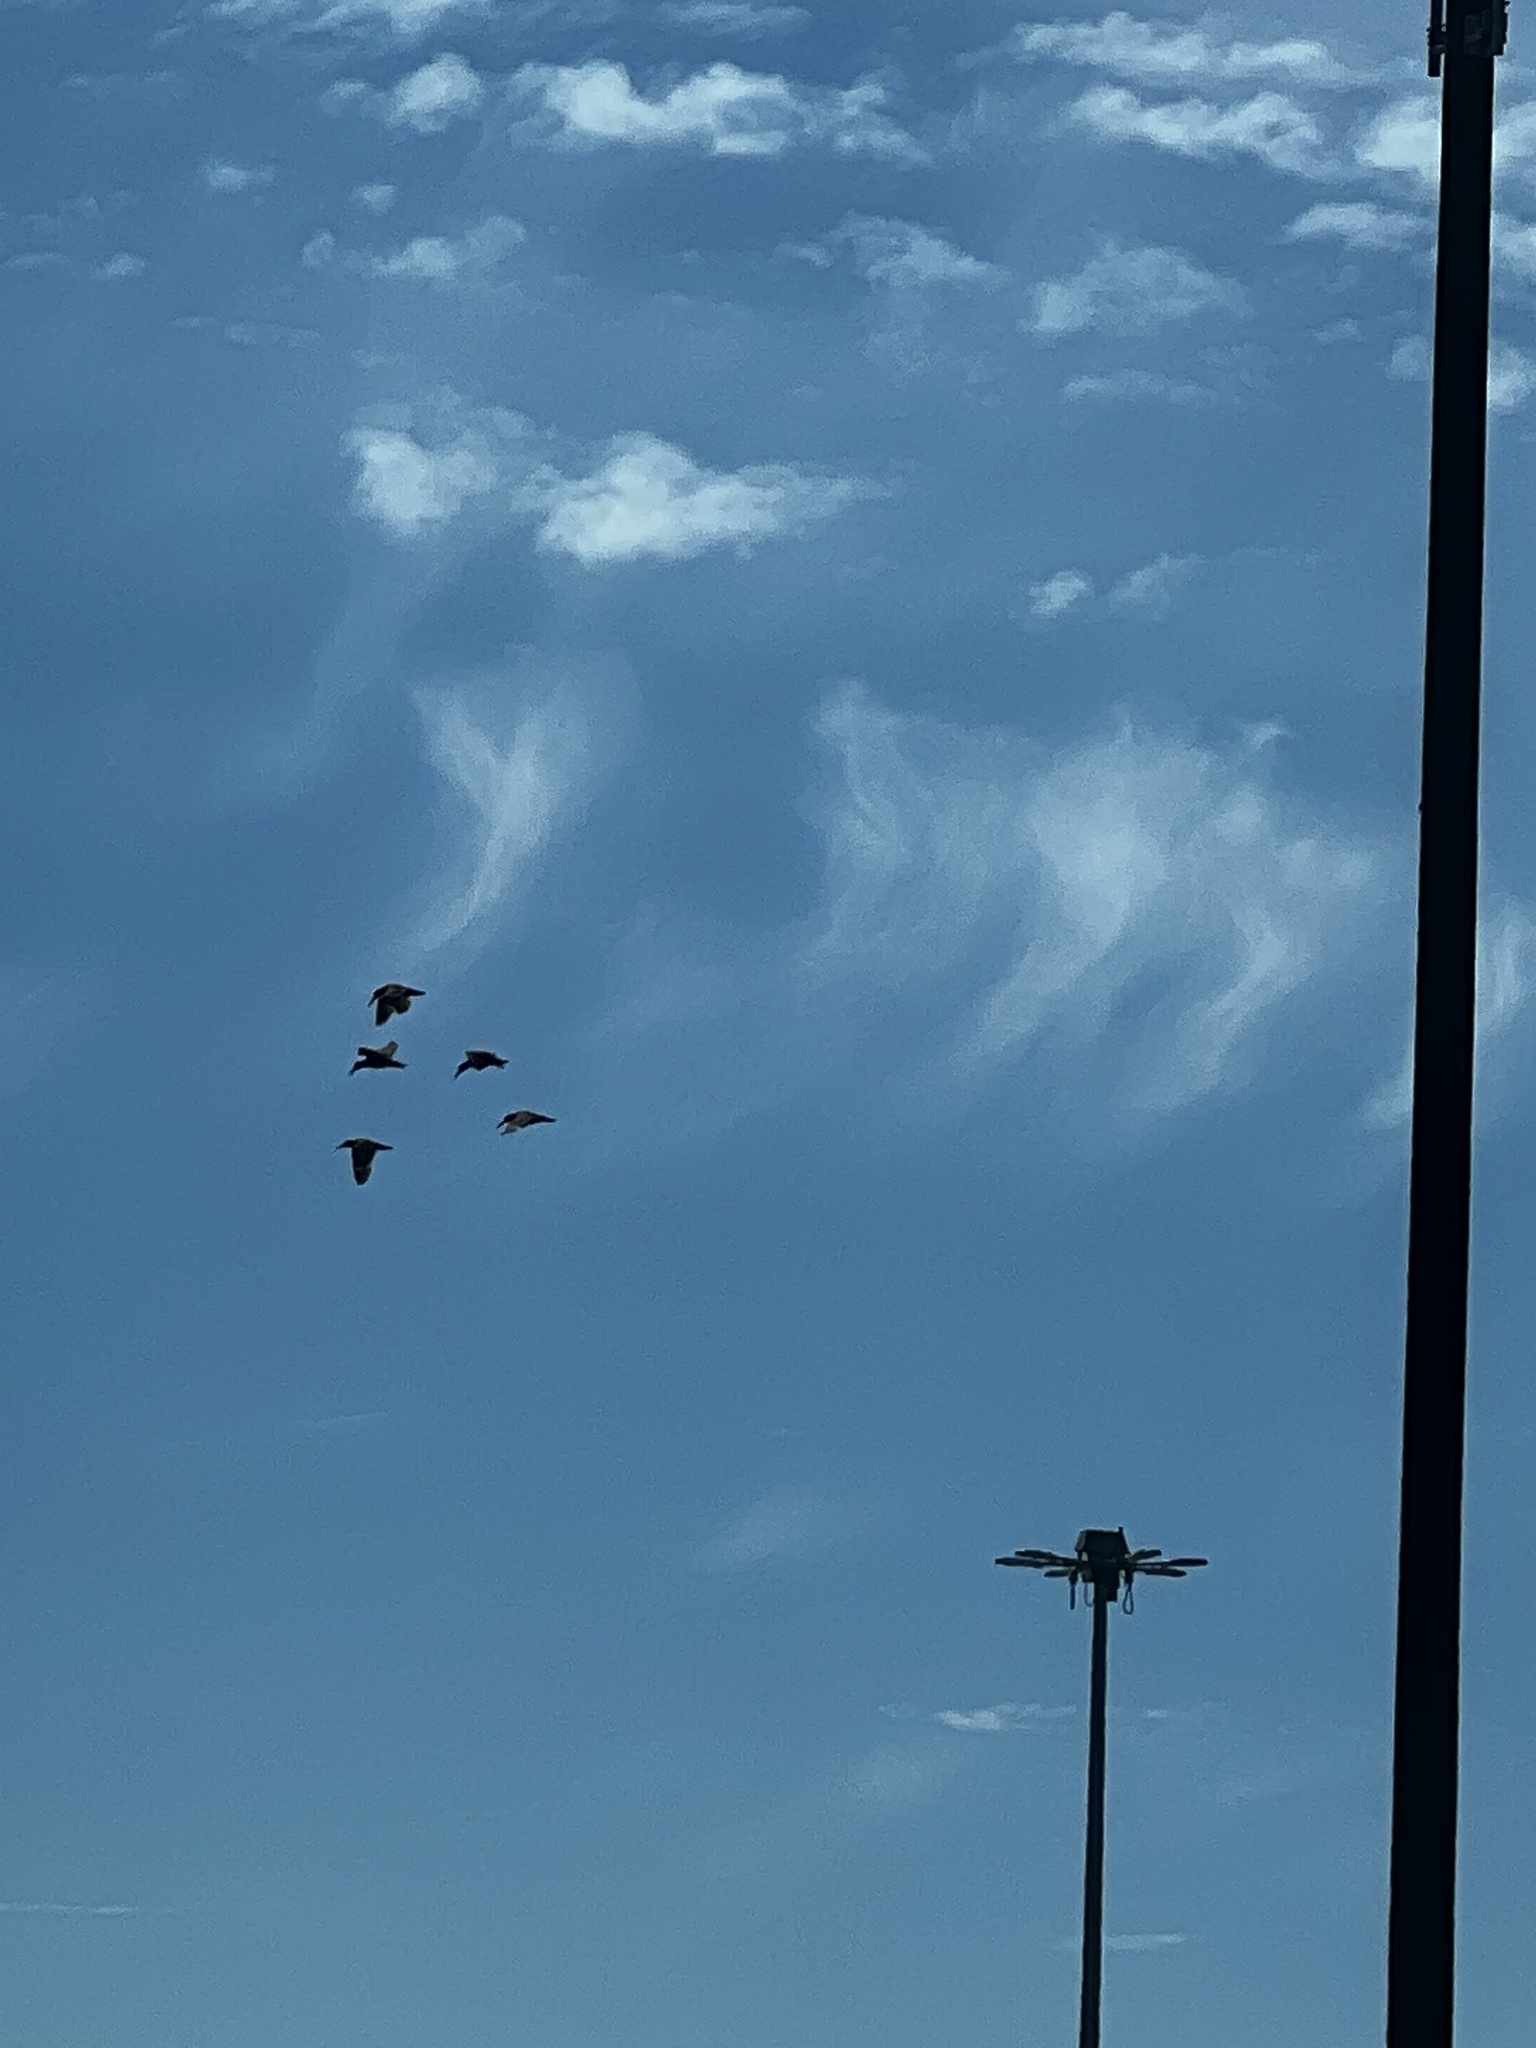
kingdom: Animalia
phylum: Chordata
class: Aves
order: Charadriiformes
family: Haematopodidae
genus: Haematopus
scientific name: Haematopus bachmani
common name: Black oystercatcher
